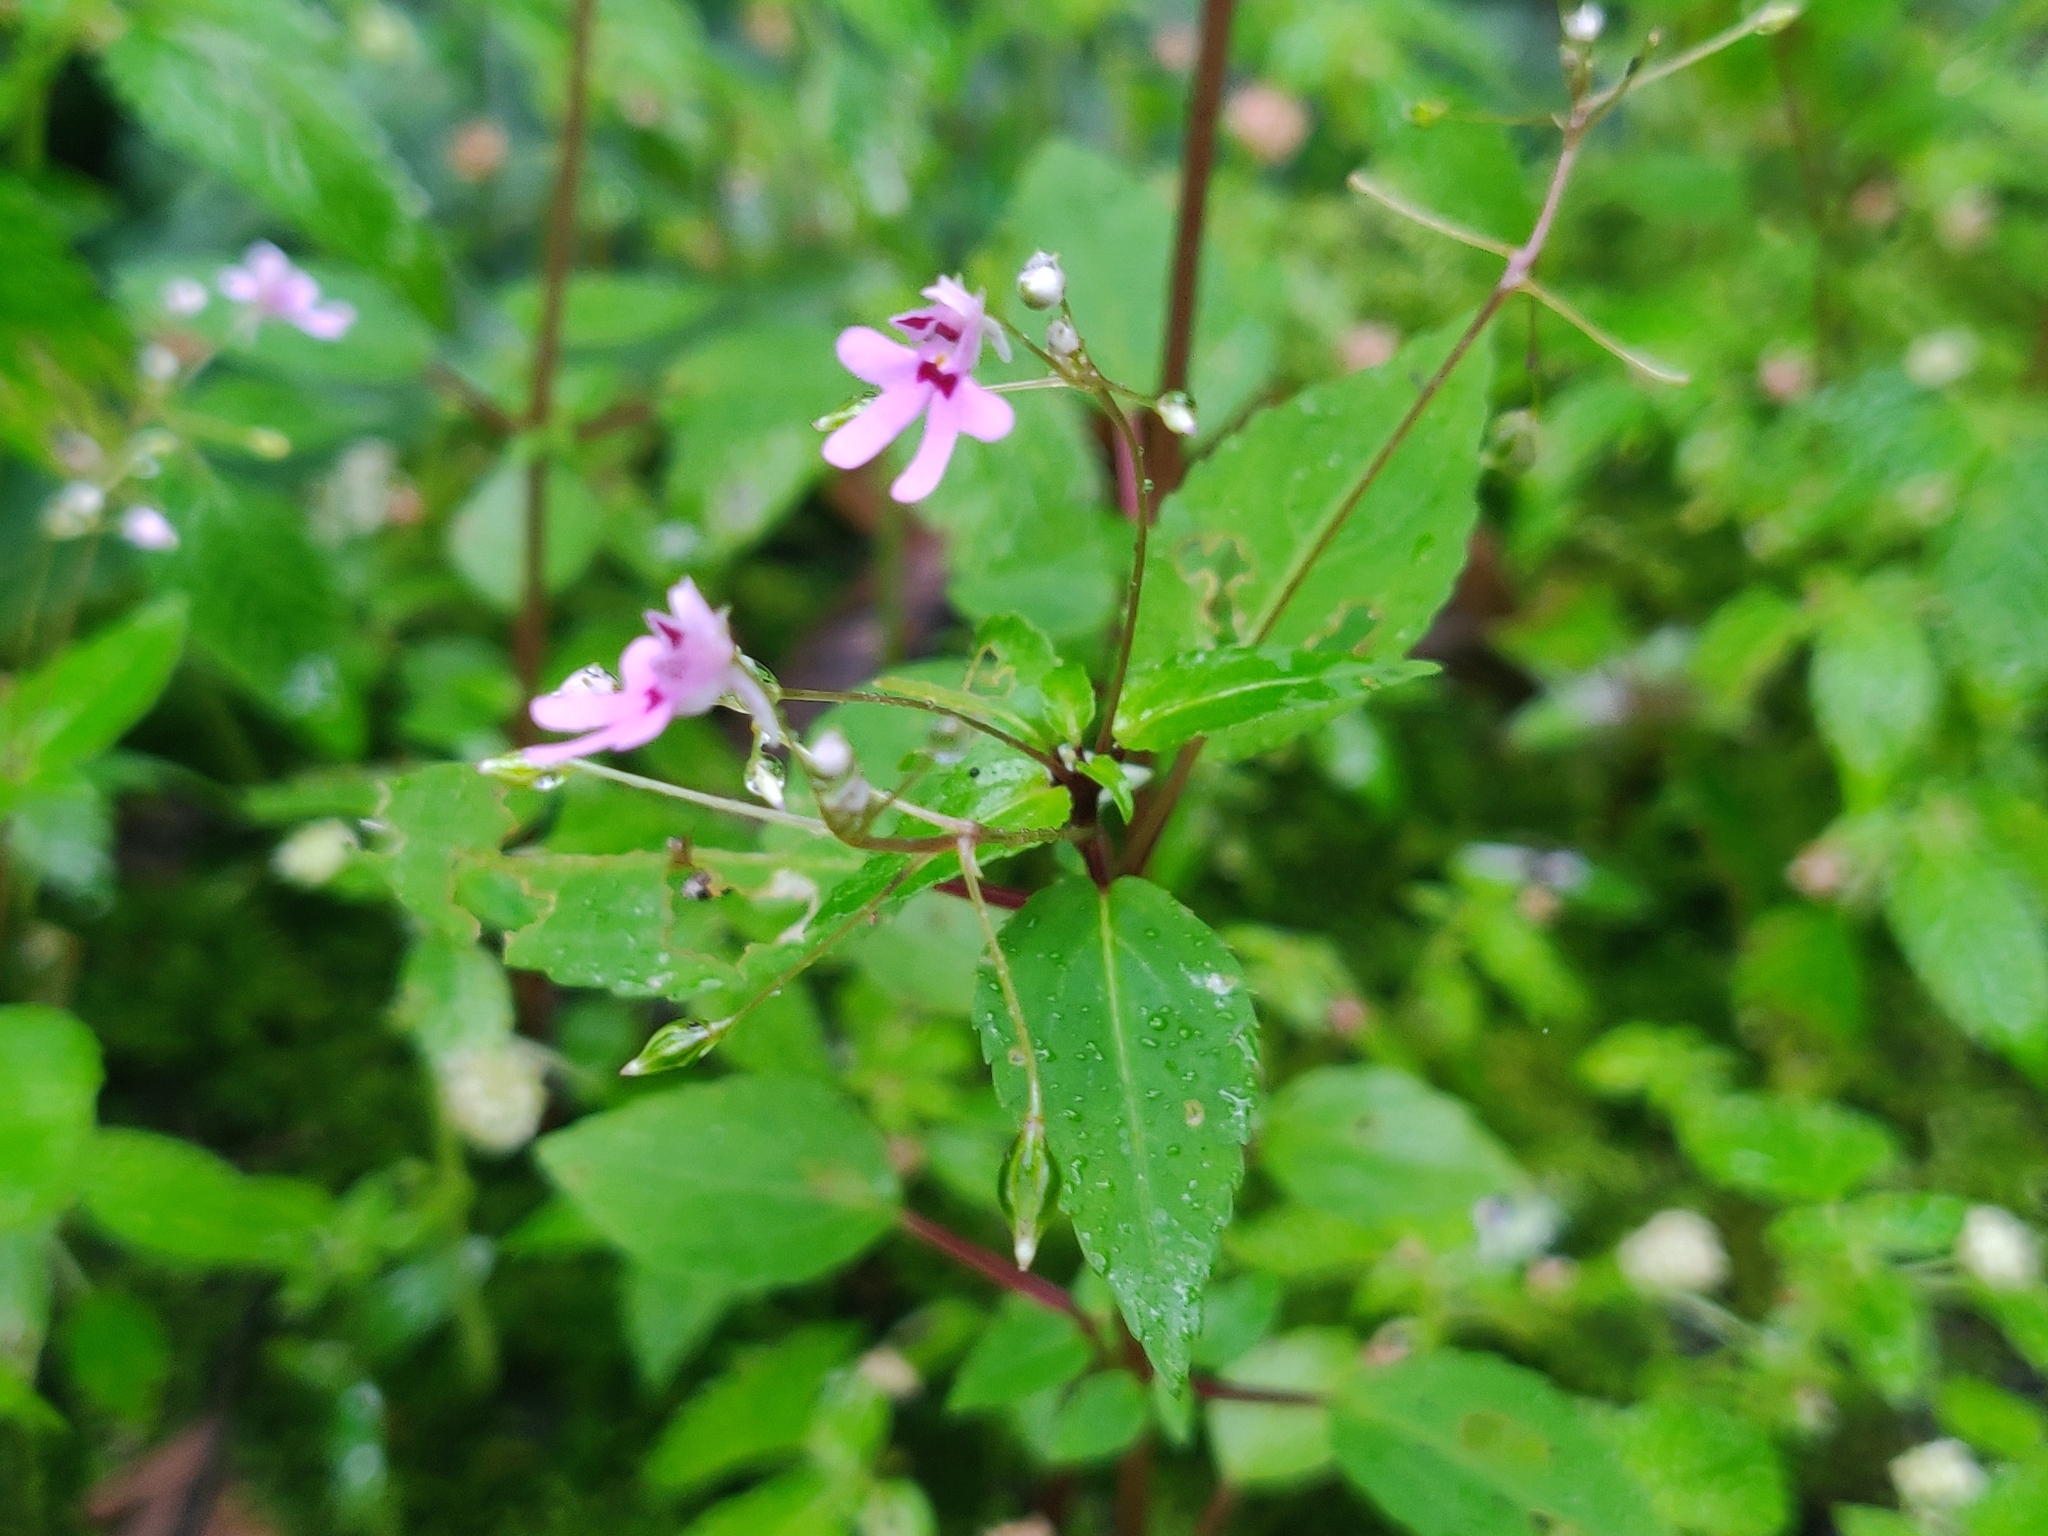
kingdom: Plantae
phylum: Tracheophyta
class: Magnoliopsida
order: Ericales
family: Balsaminaceae
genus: Impatiens
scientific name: Impatiens goughii
